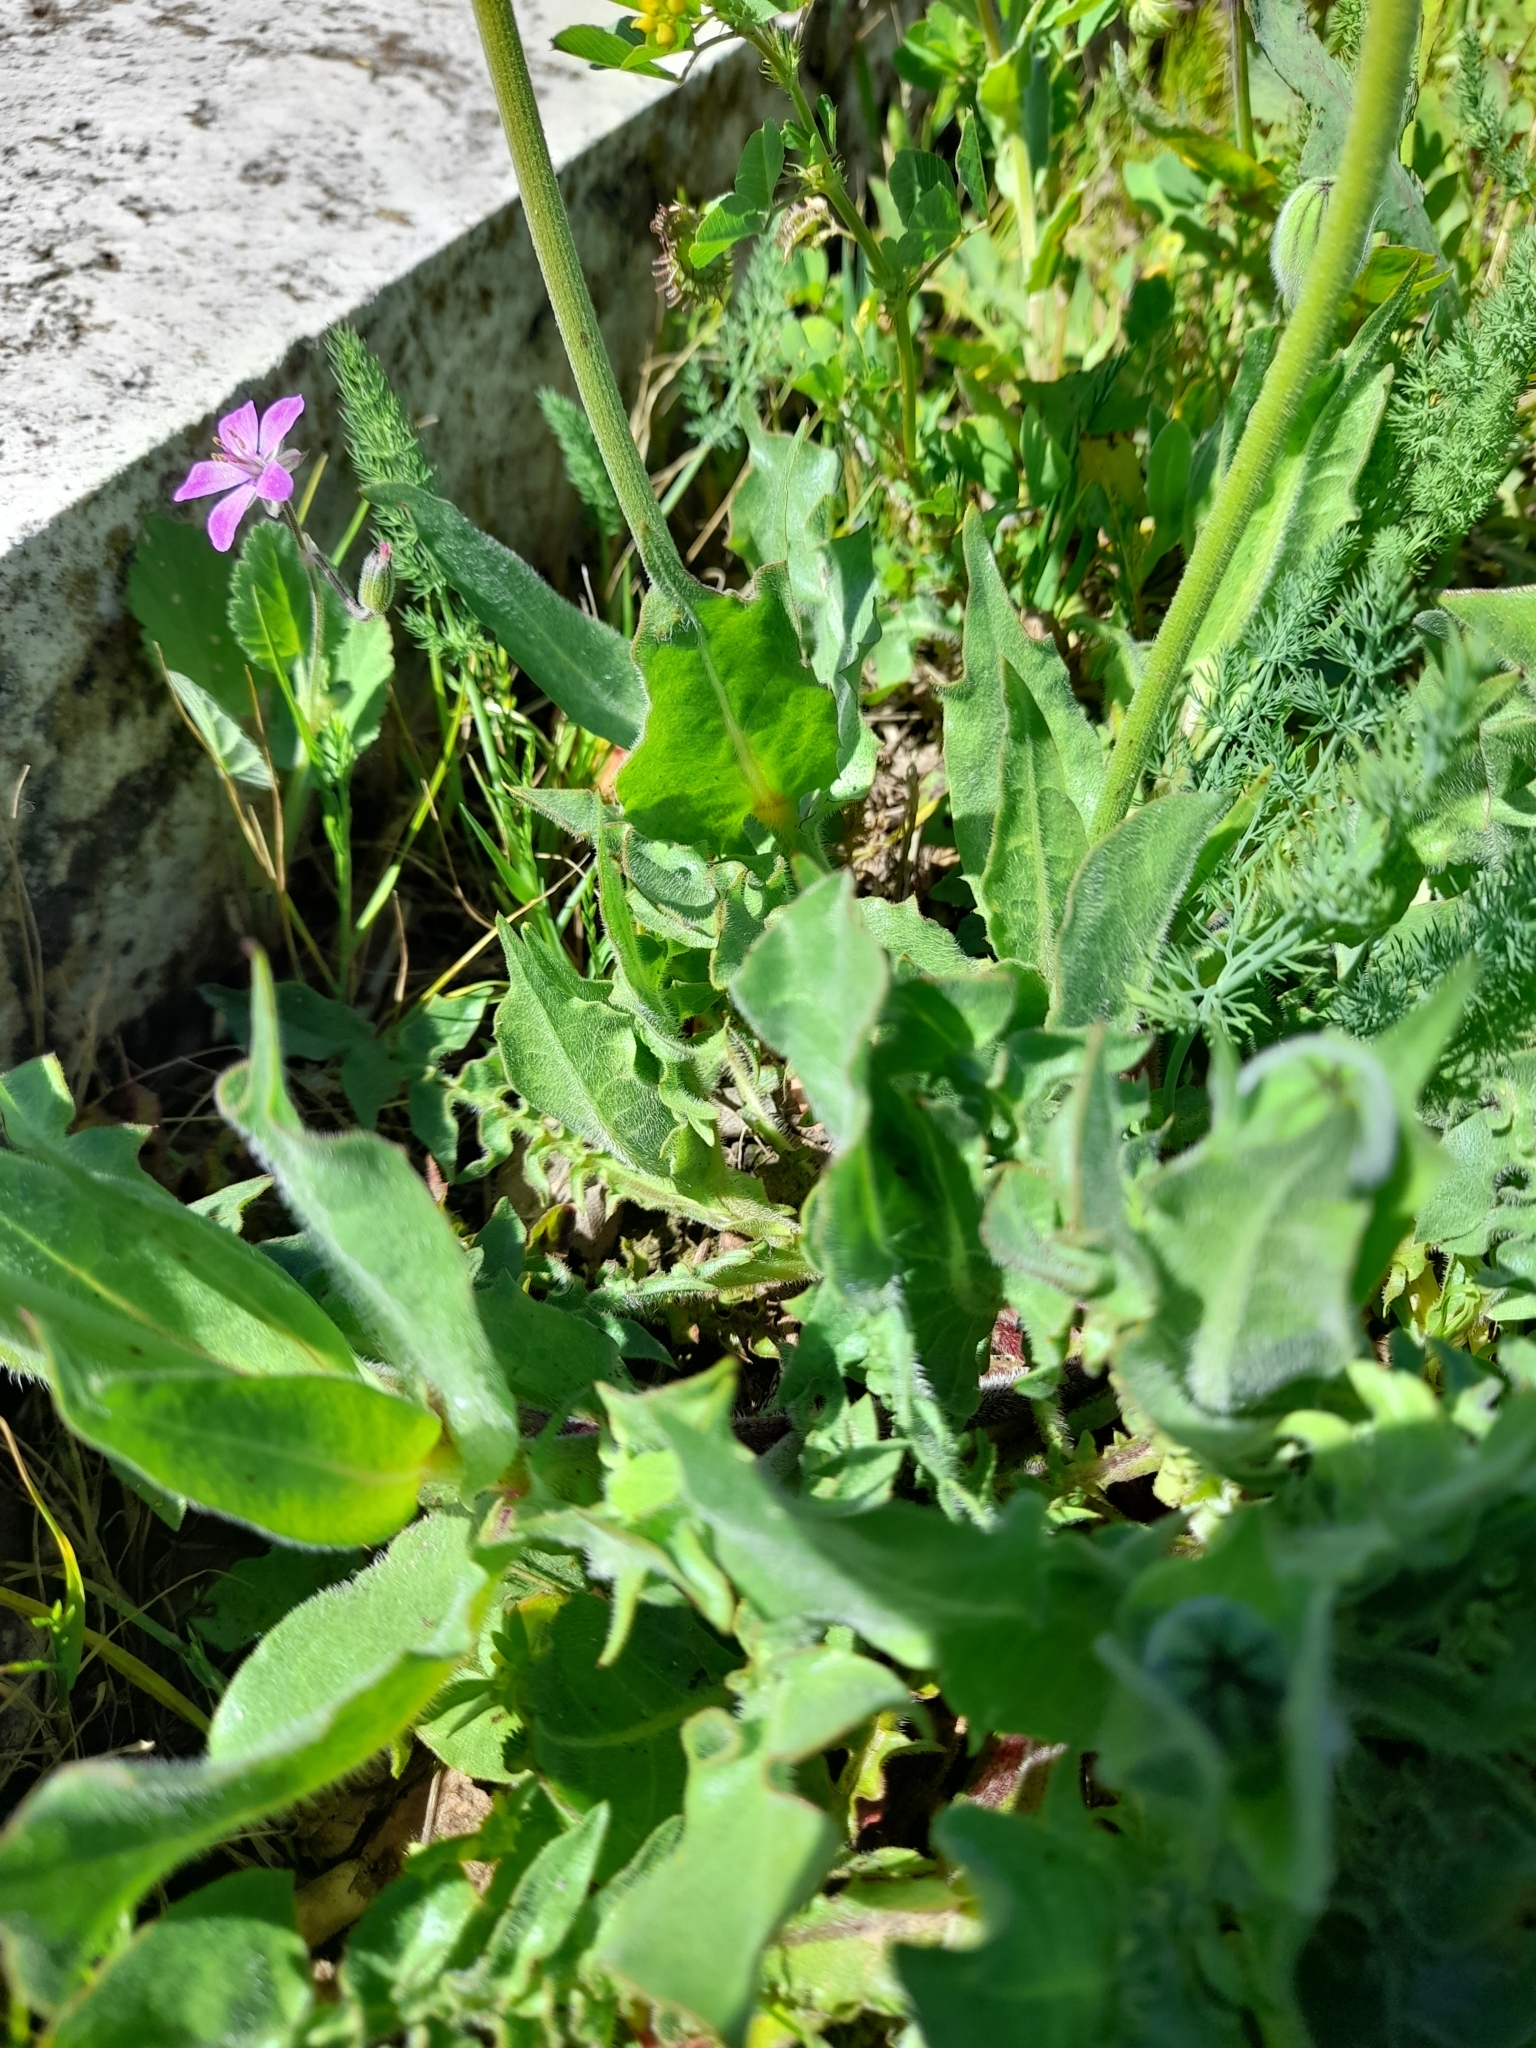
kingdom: Plantae
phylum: Tracheophyta
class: Magnoliopsida
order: Asterales
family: Asteraceae
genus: Urospermum
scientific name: Urospermum dalechampii
